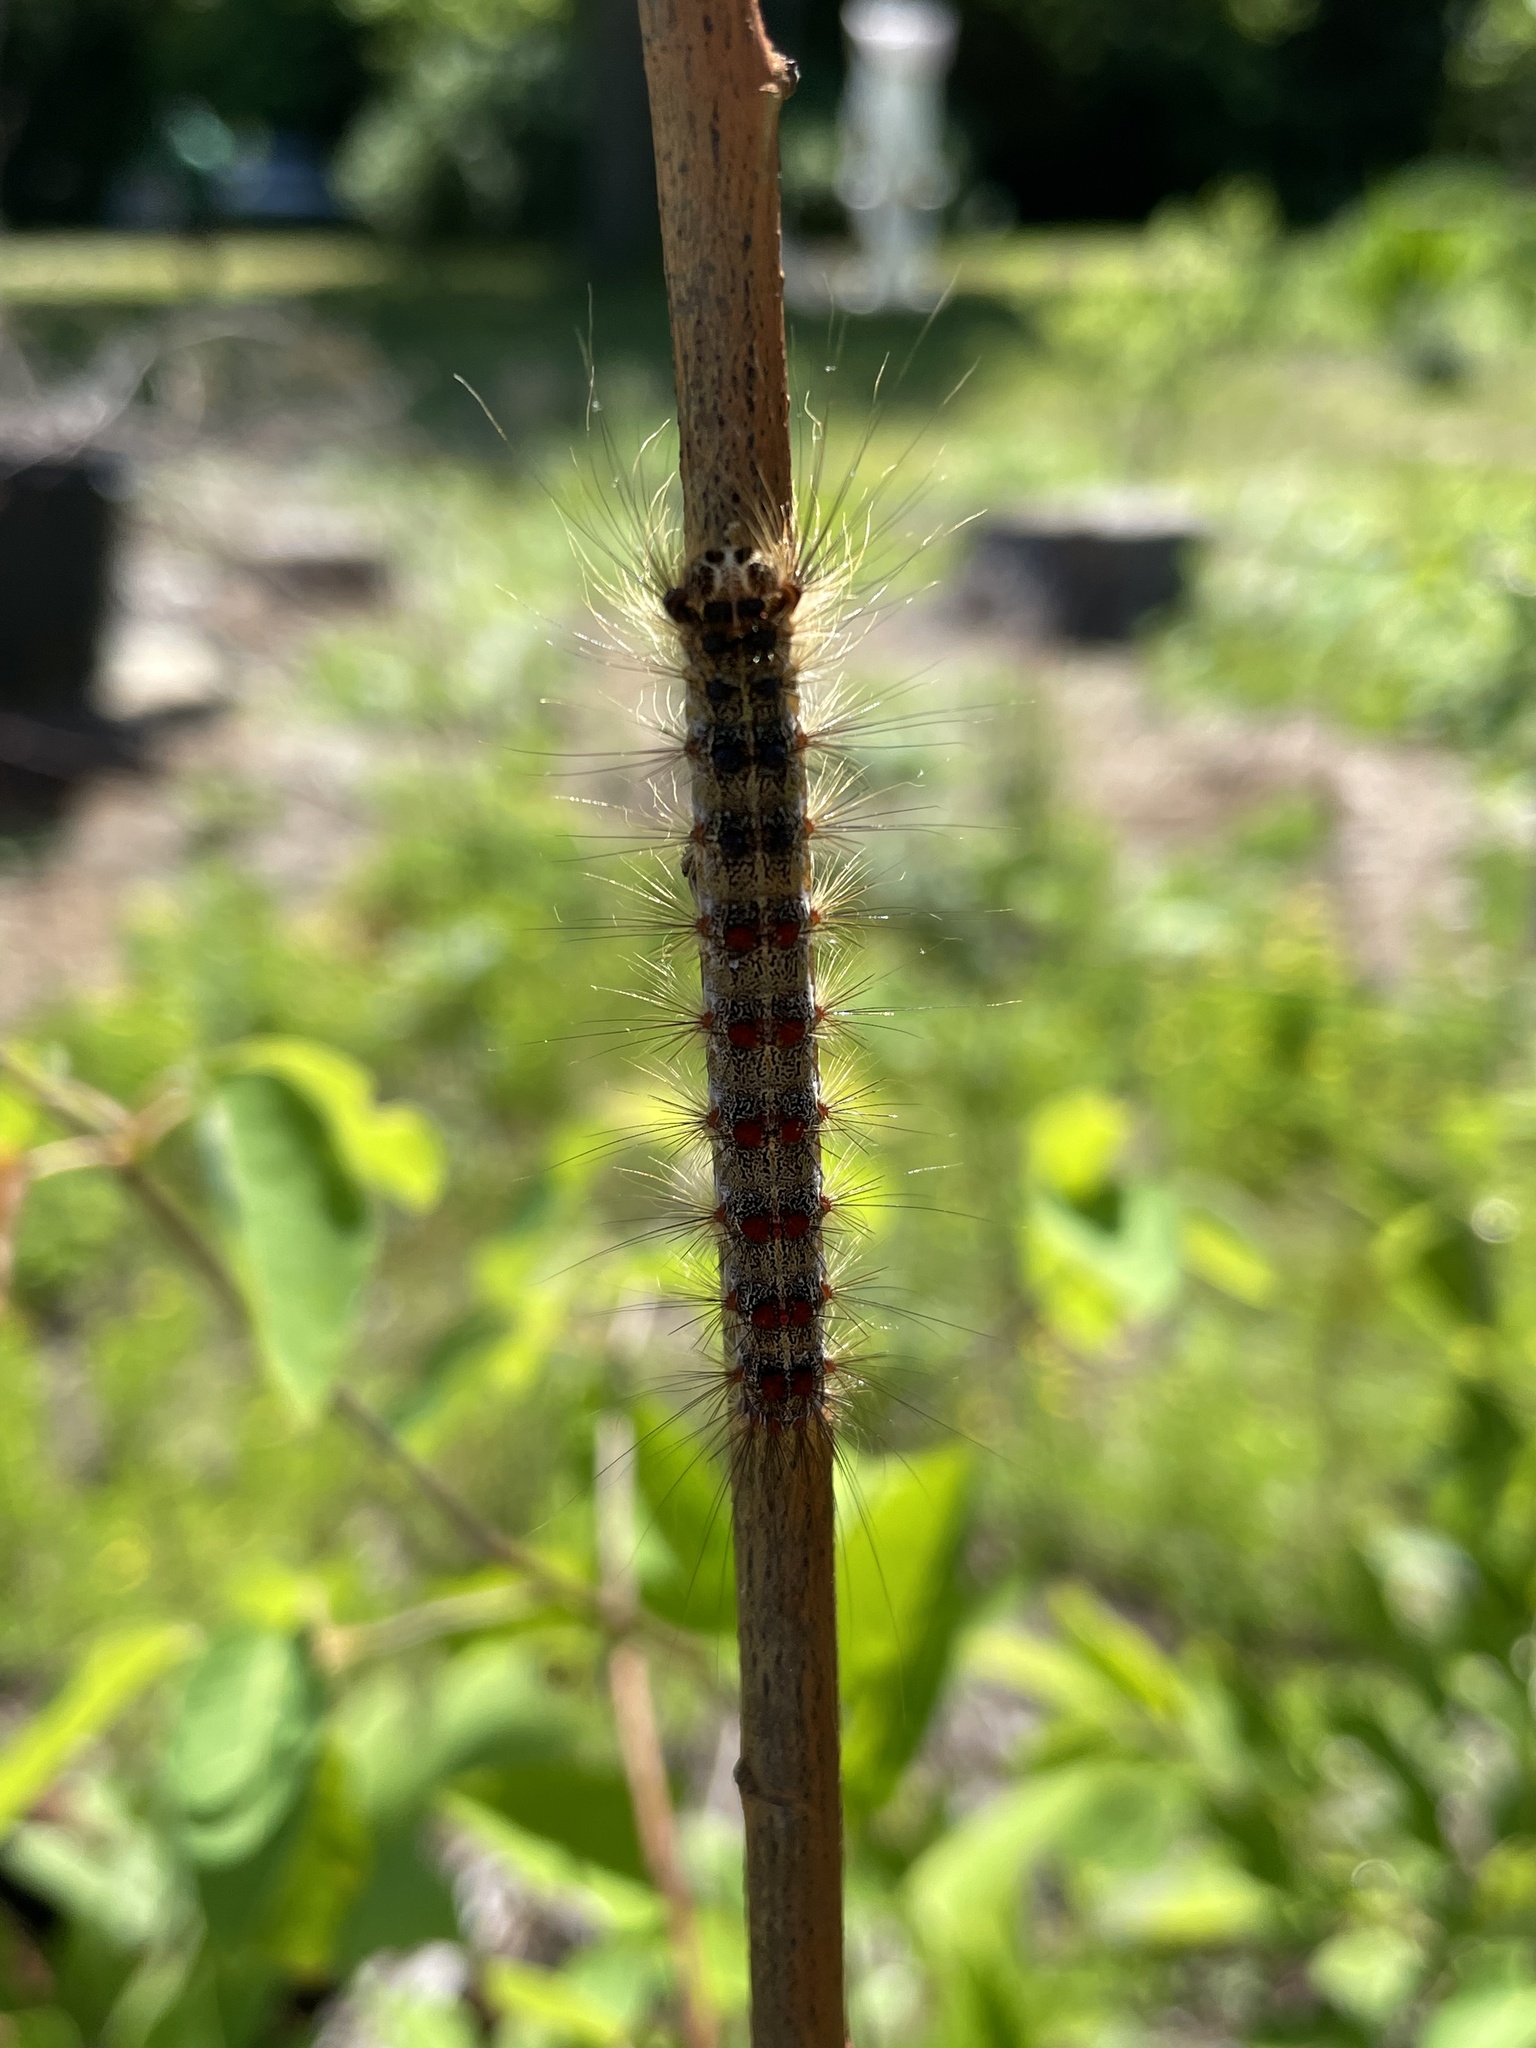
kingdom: Animalia
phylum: Arthropoda
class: Insecta
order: Lepidoptera
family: Erebidae
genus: Lymantria
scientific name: Lymantria dispar
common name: Gypsy moth
